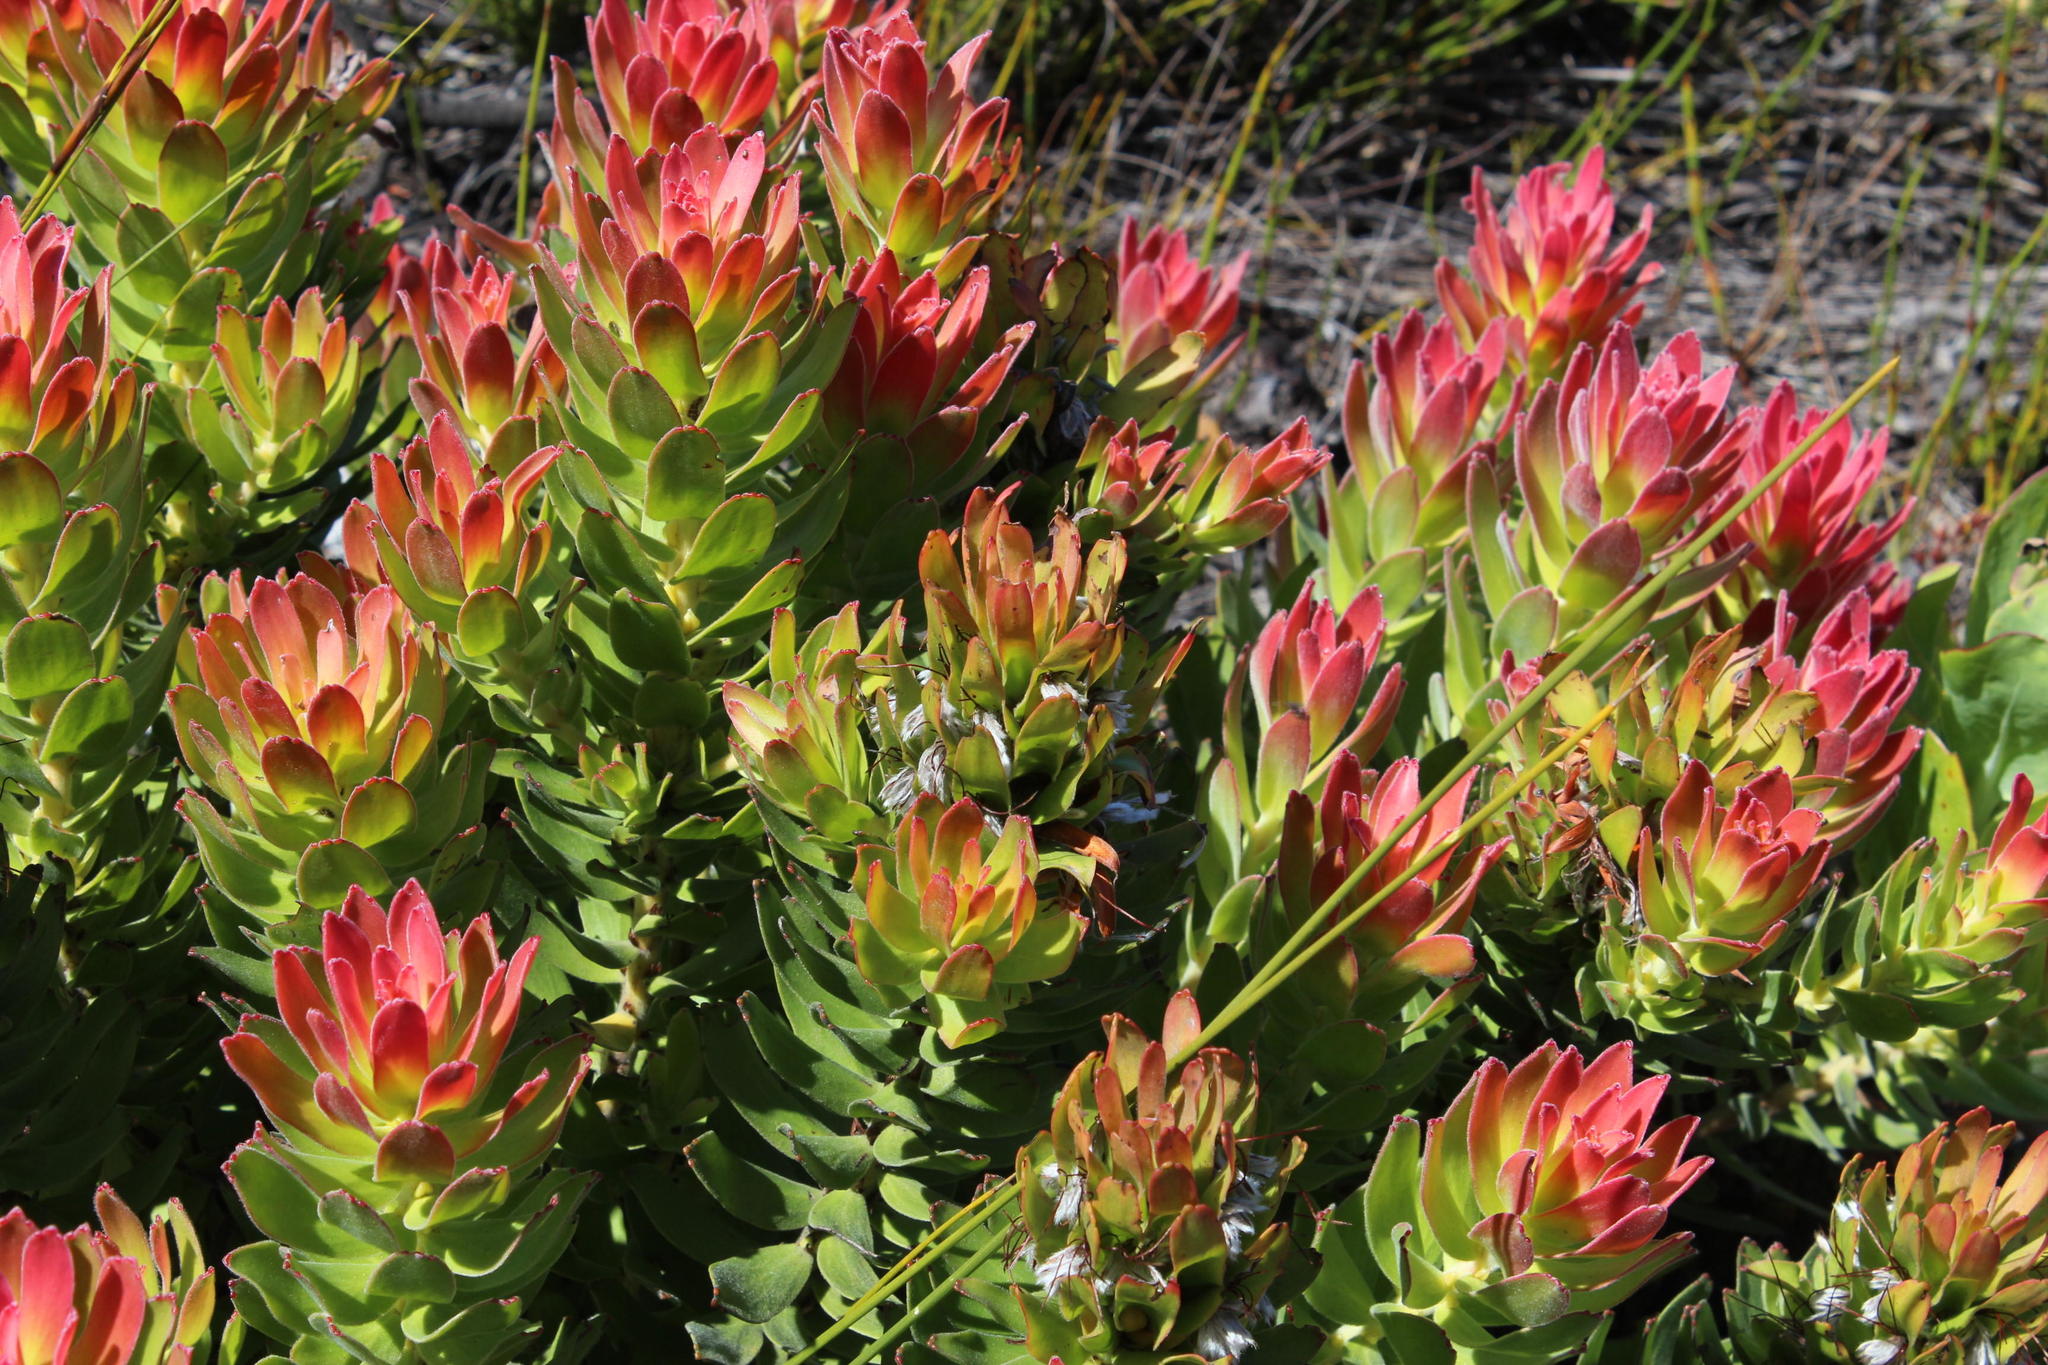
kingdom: Plantae
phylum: Tracheophyta
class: Magnoliopsida
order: Proteales
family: Proteaceae
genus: Mimetes
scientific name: Mimetes cucullatus
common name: Common pagoda
